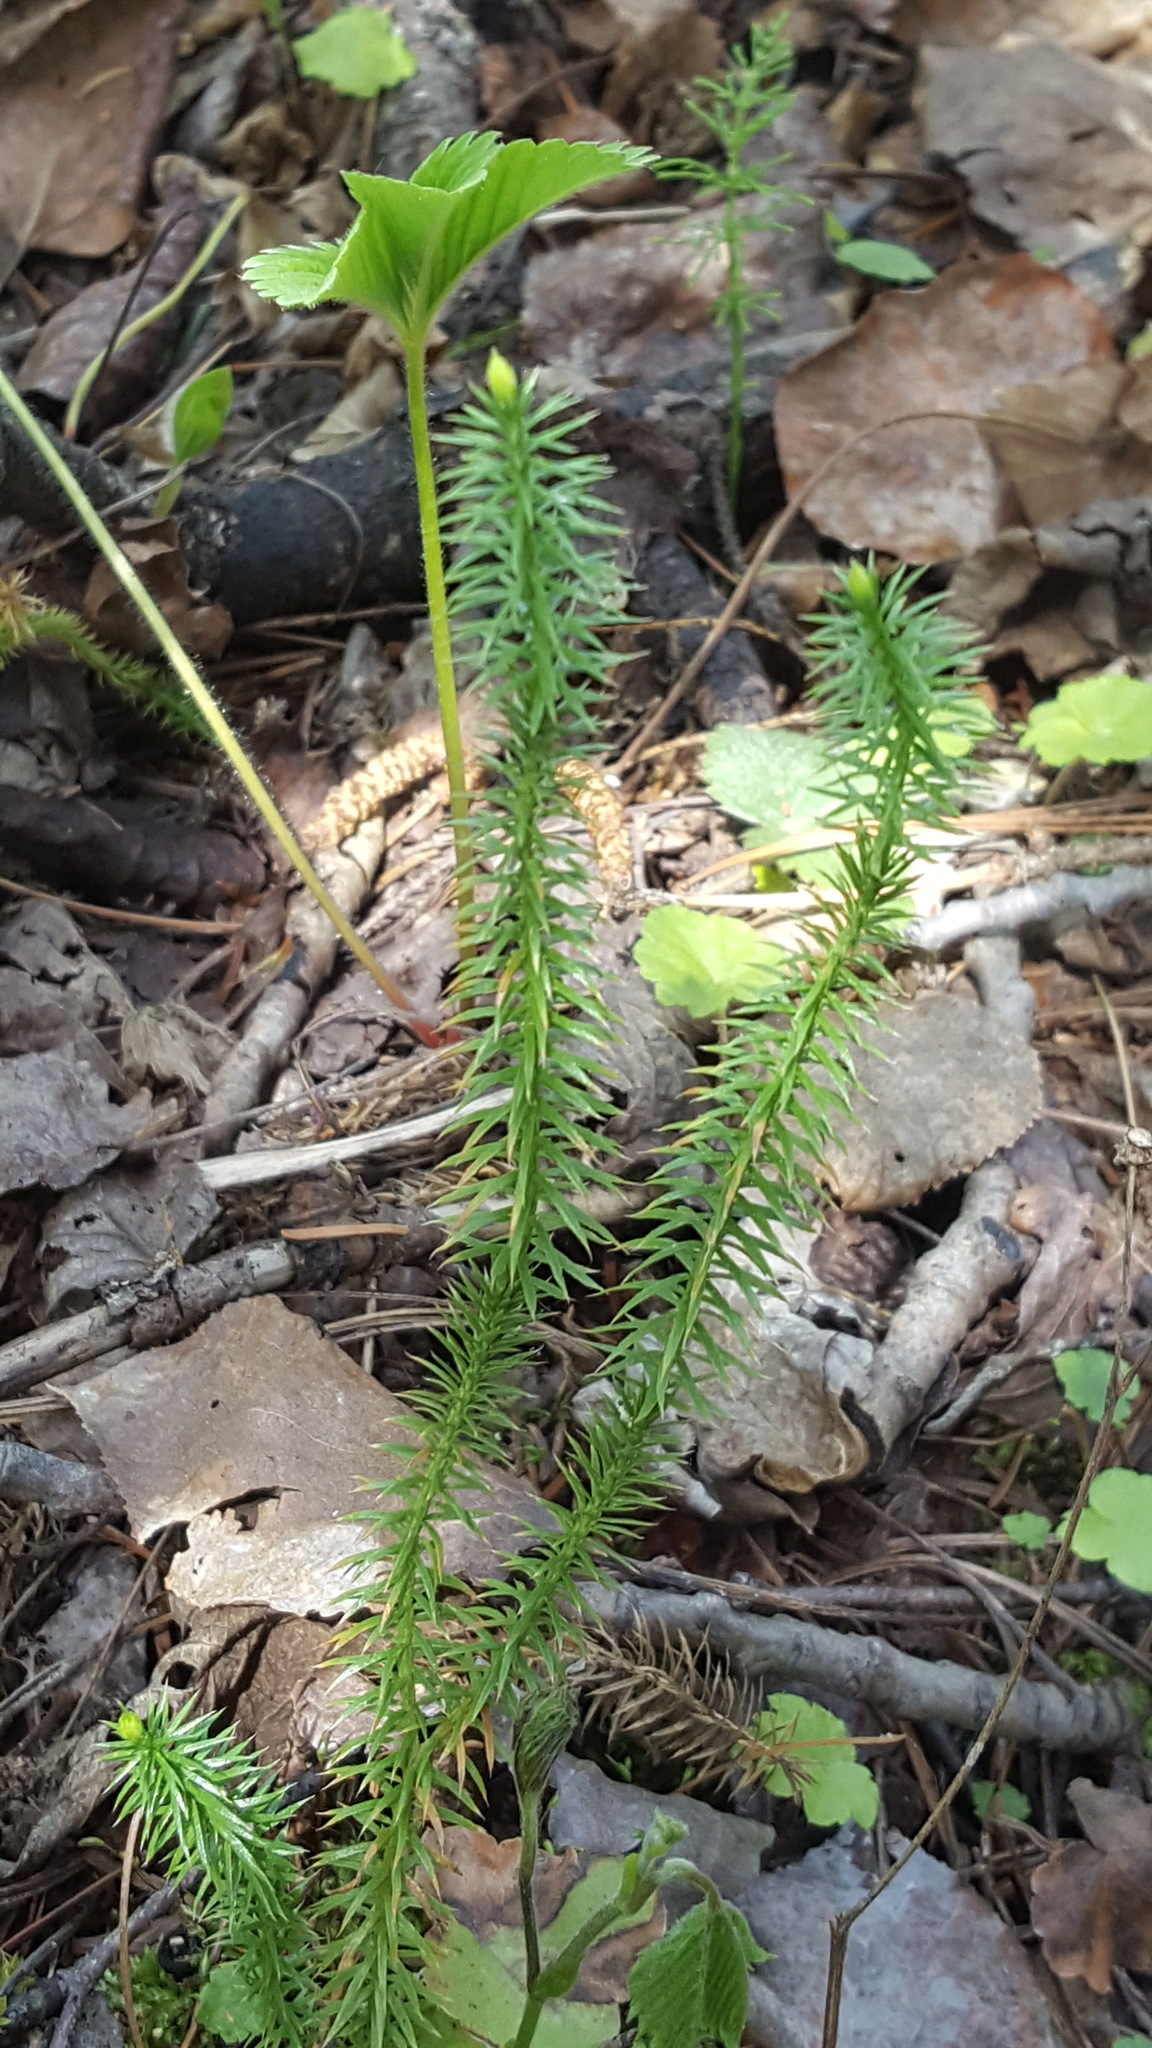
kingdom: Plantae
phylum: Tracheophyta
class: Lycopodiopsida
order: Lycopodiales
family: Lycopodiaceae
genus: Spinulum
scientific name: Spinulum annotinum
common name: Interrupted club-moss
